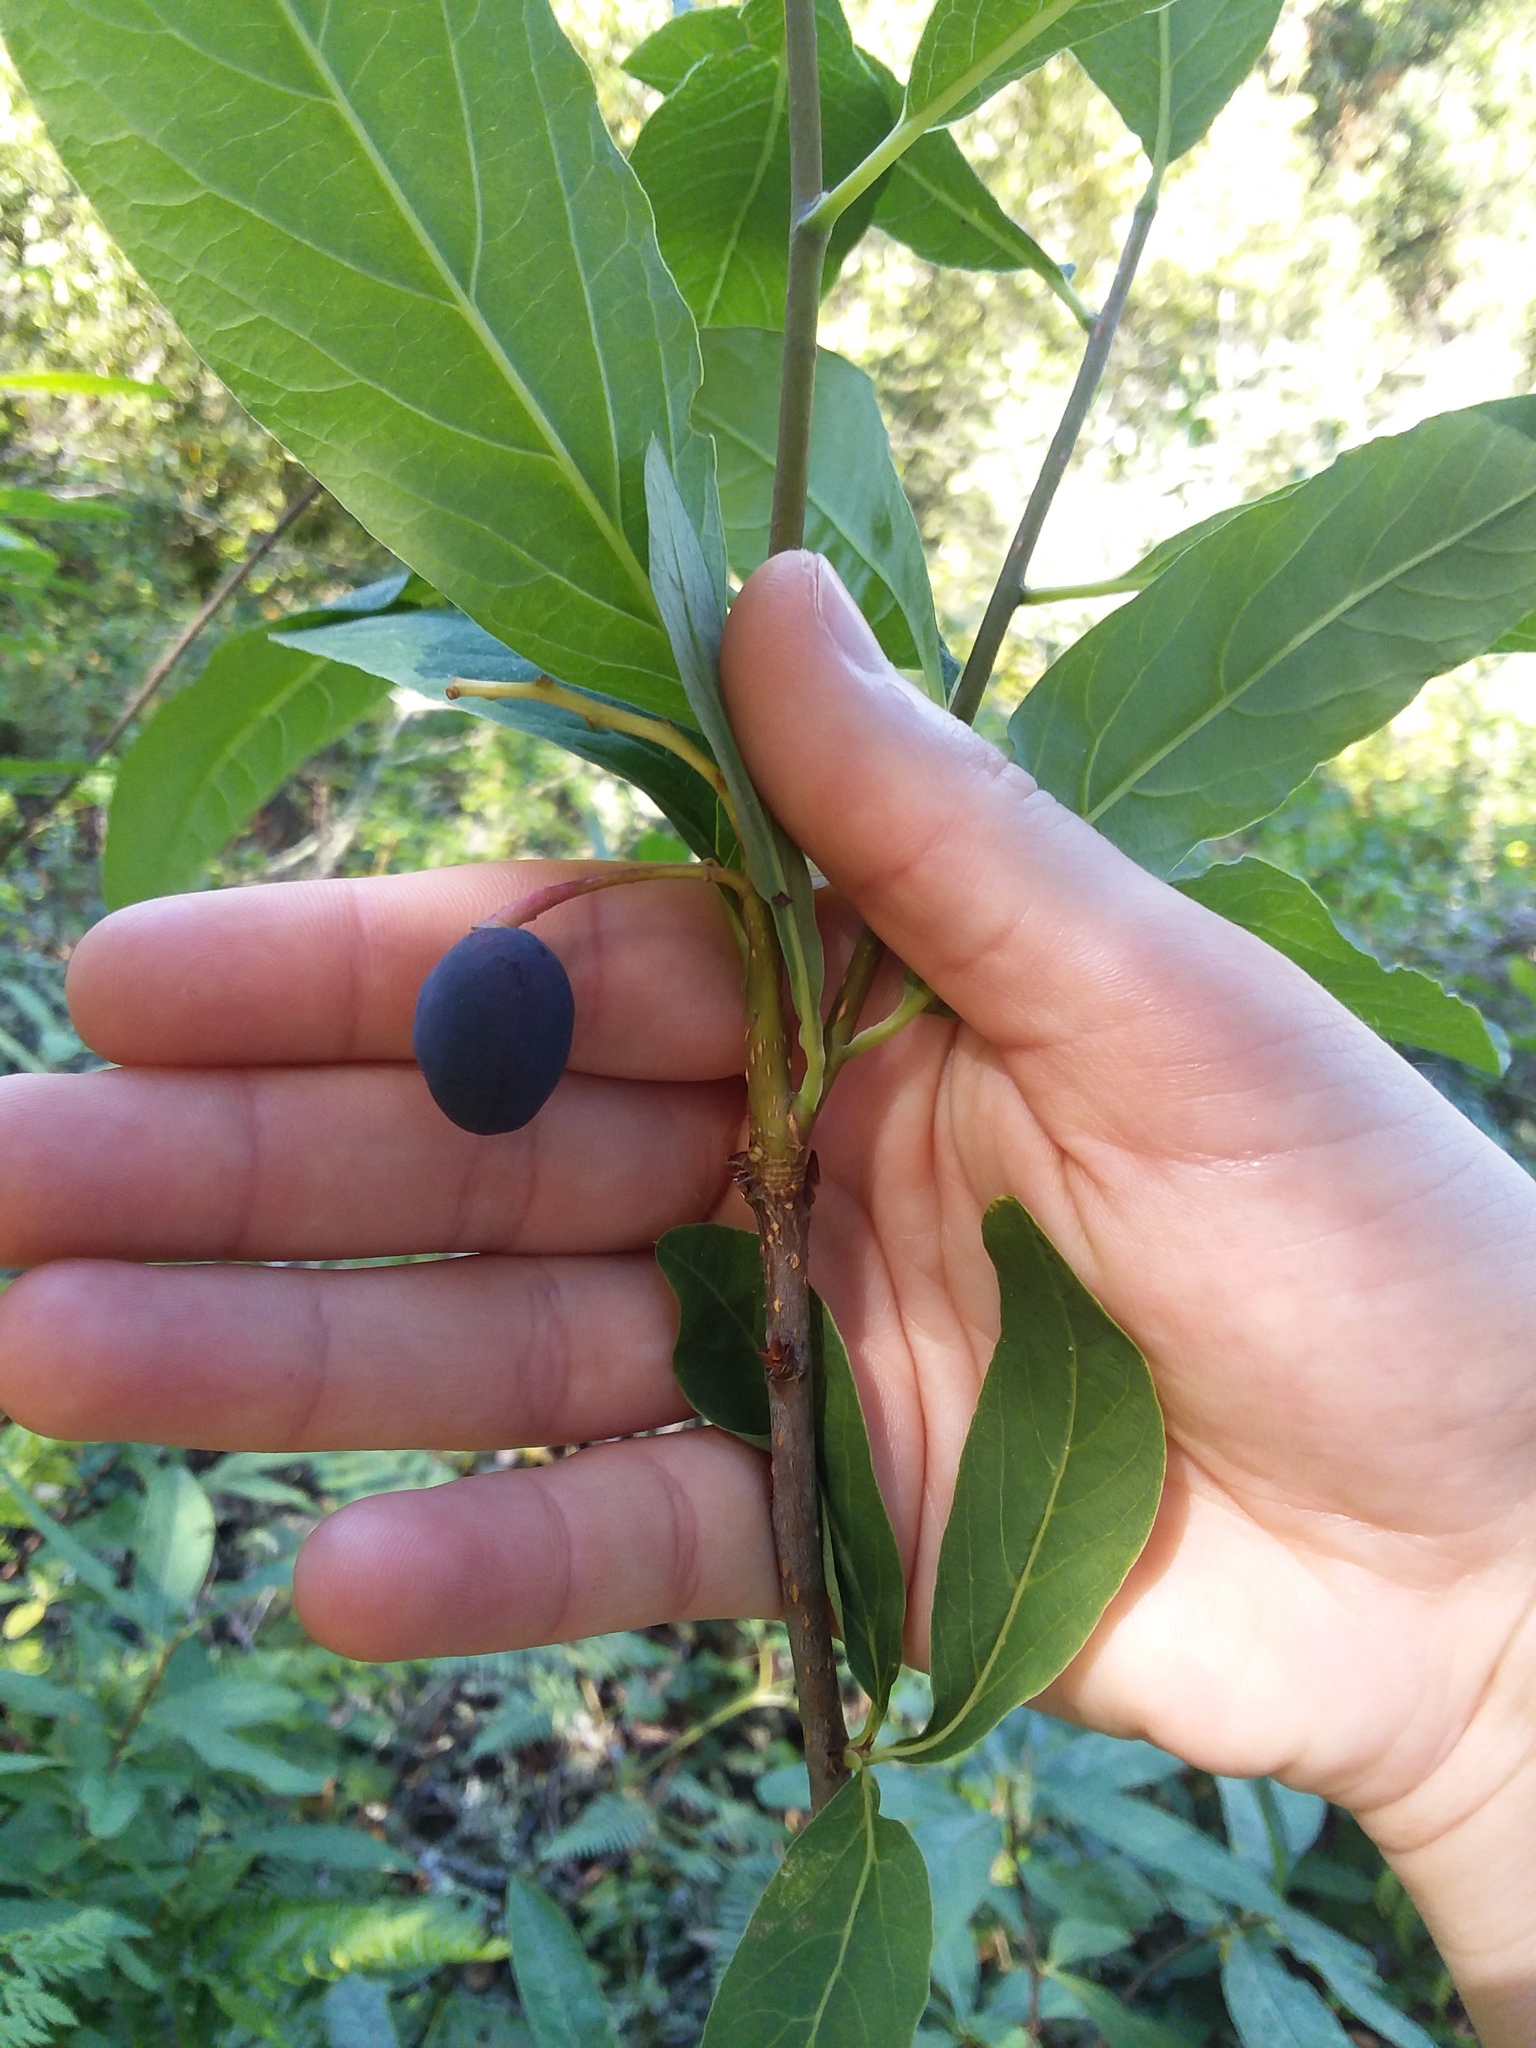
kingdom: Plantae
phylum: Tracheophyta
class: Magnoliopsida
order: Rosales
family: Rosaceae
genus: Oemleria
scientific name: Oemleria cerasiformis
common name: Osoberry
